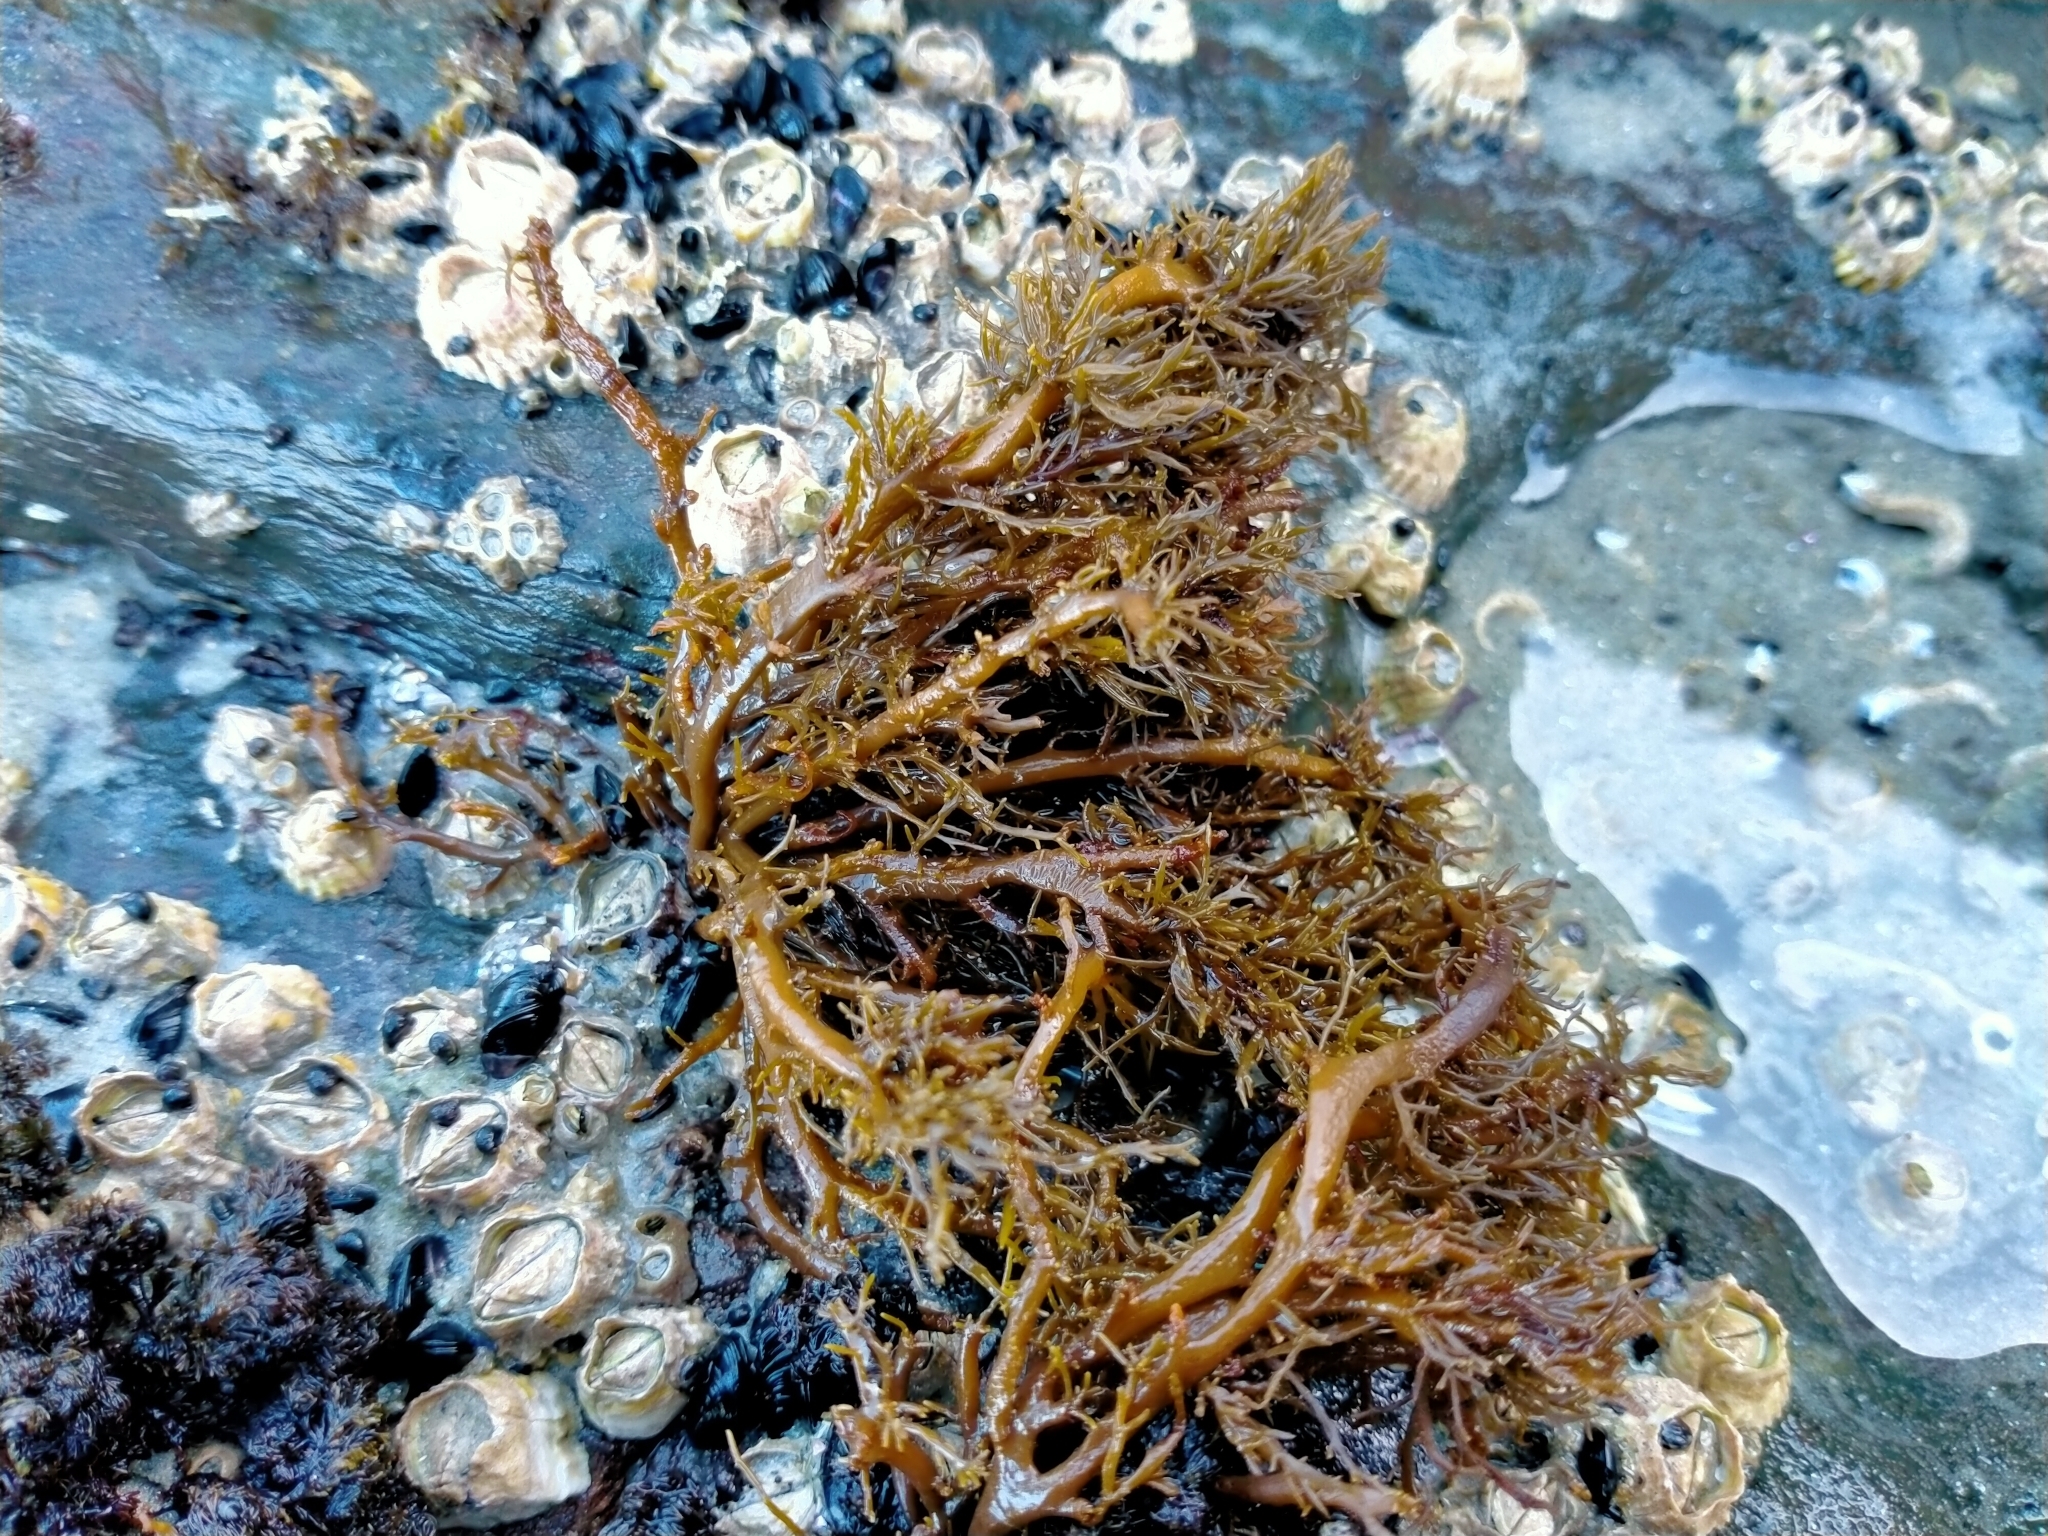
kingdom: Chromista
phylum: Ochrophyta
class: Phaeophyceae
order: Scytothamnales
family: Scytothamnaceae
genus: Scytothamnus
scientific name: Scytothamnus australis
